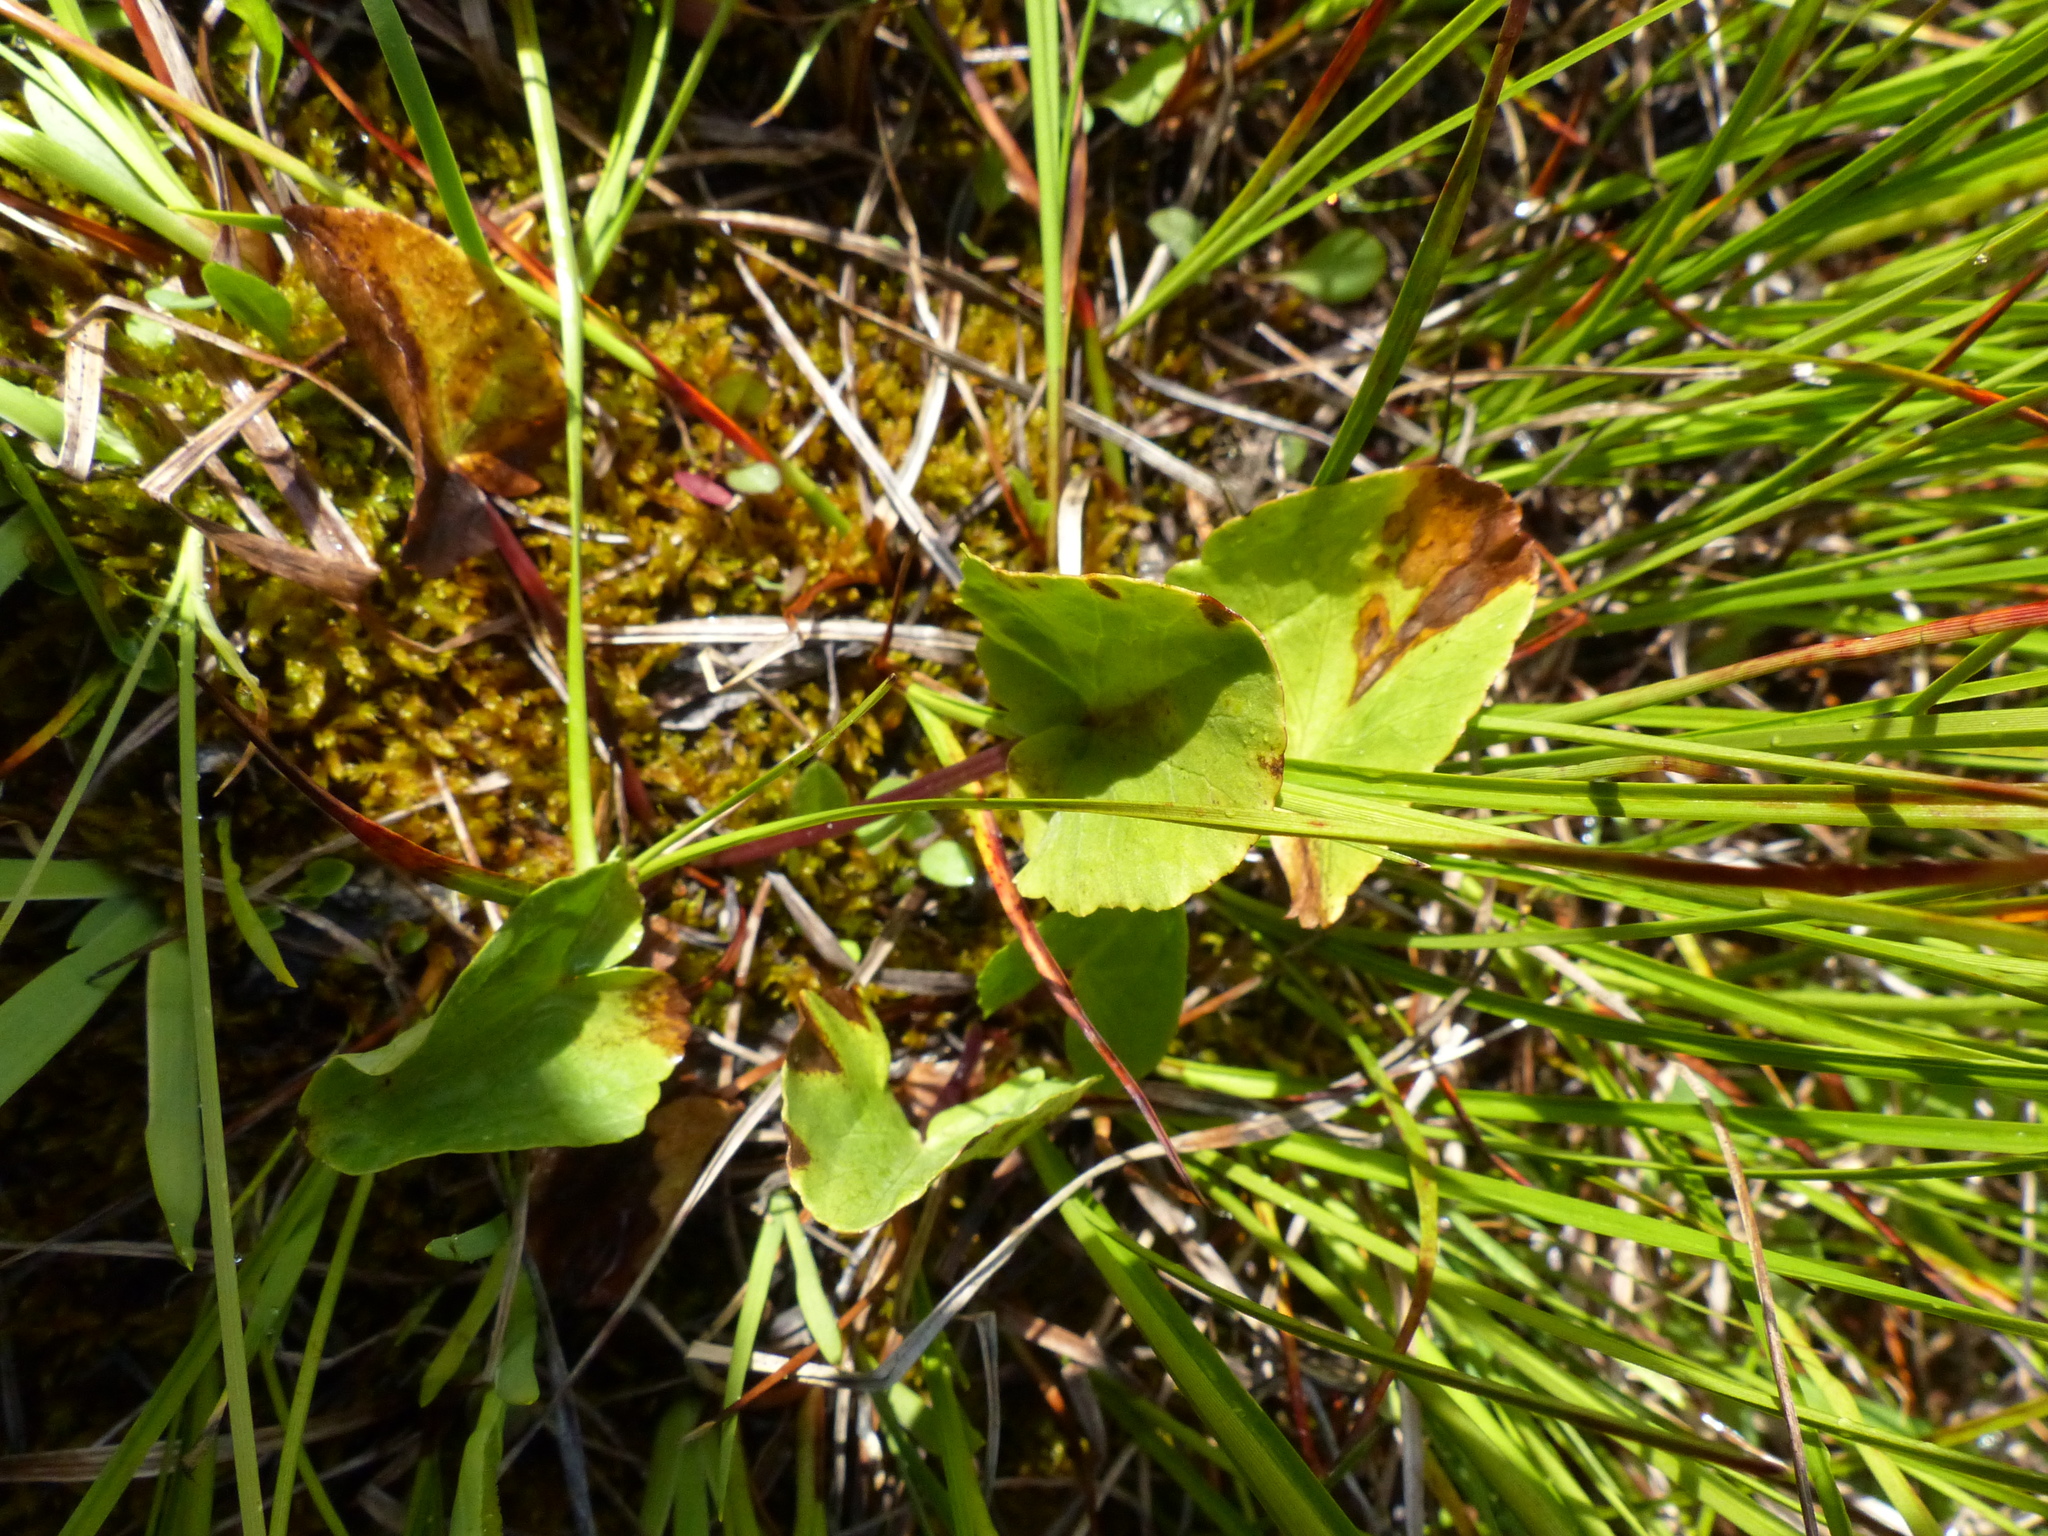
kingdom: Plantae
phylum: Tracheophyta
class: Magnoliopsida
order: Ranunculales
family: Ranunculaceae
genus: Caltha
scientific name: Caltha leptosepala
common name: Elkslip
